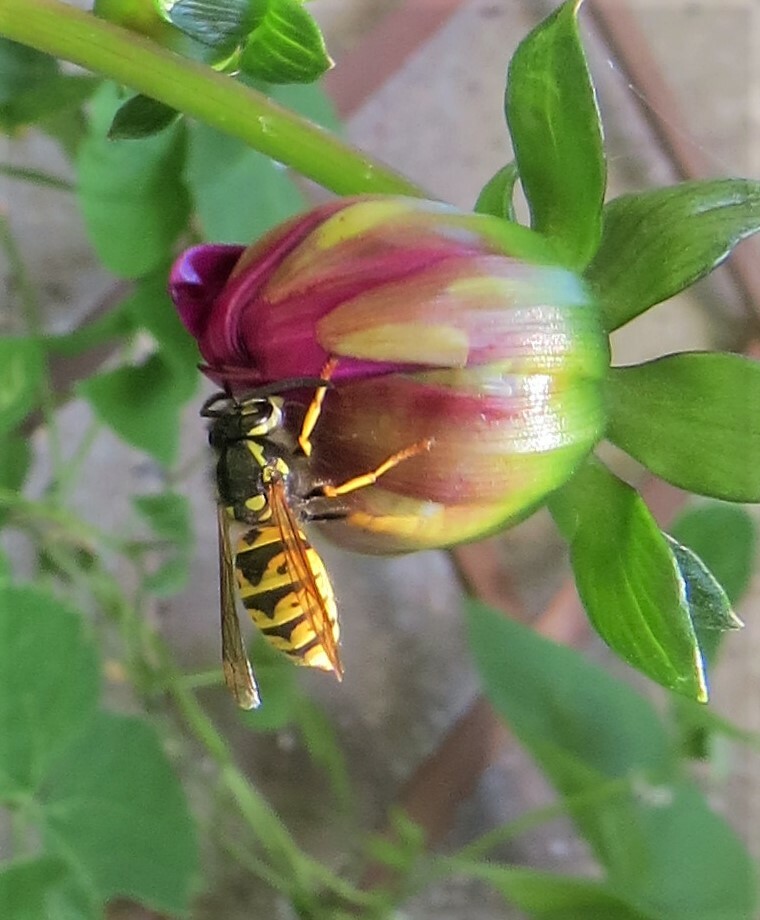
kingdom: Animalia
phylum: Arthropoda
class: Insecta
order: Hymenoptera
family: Vespidae
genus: Vespula
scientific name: Vespula germanica
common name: German wasp
